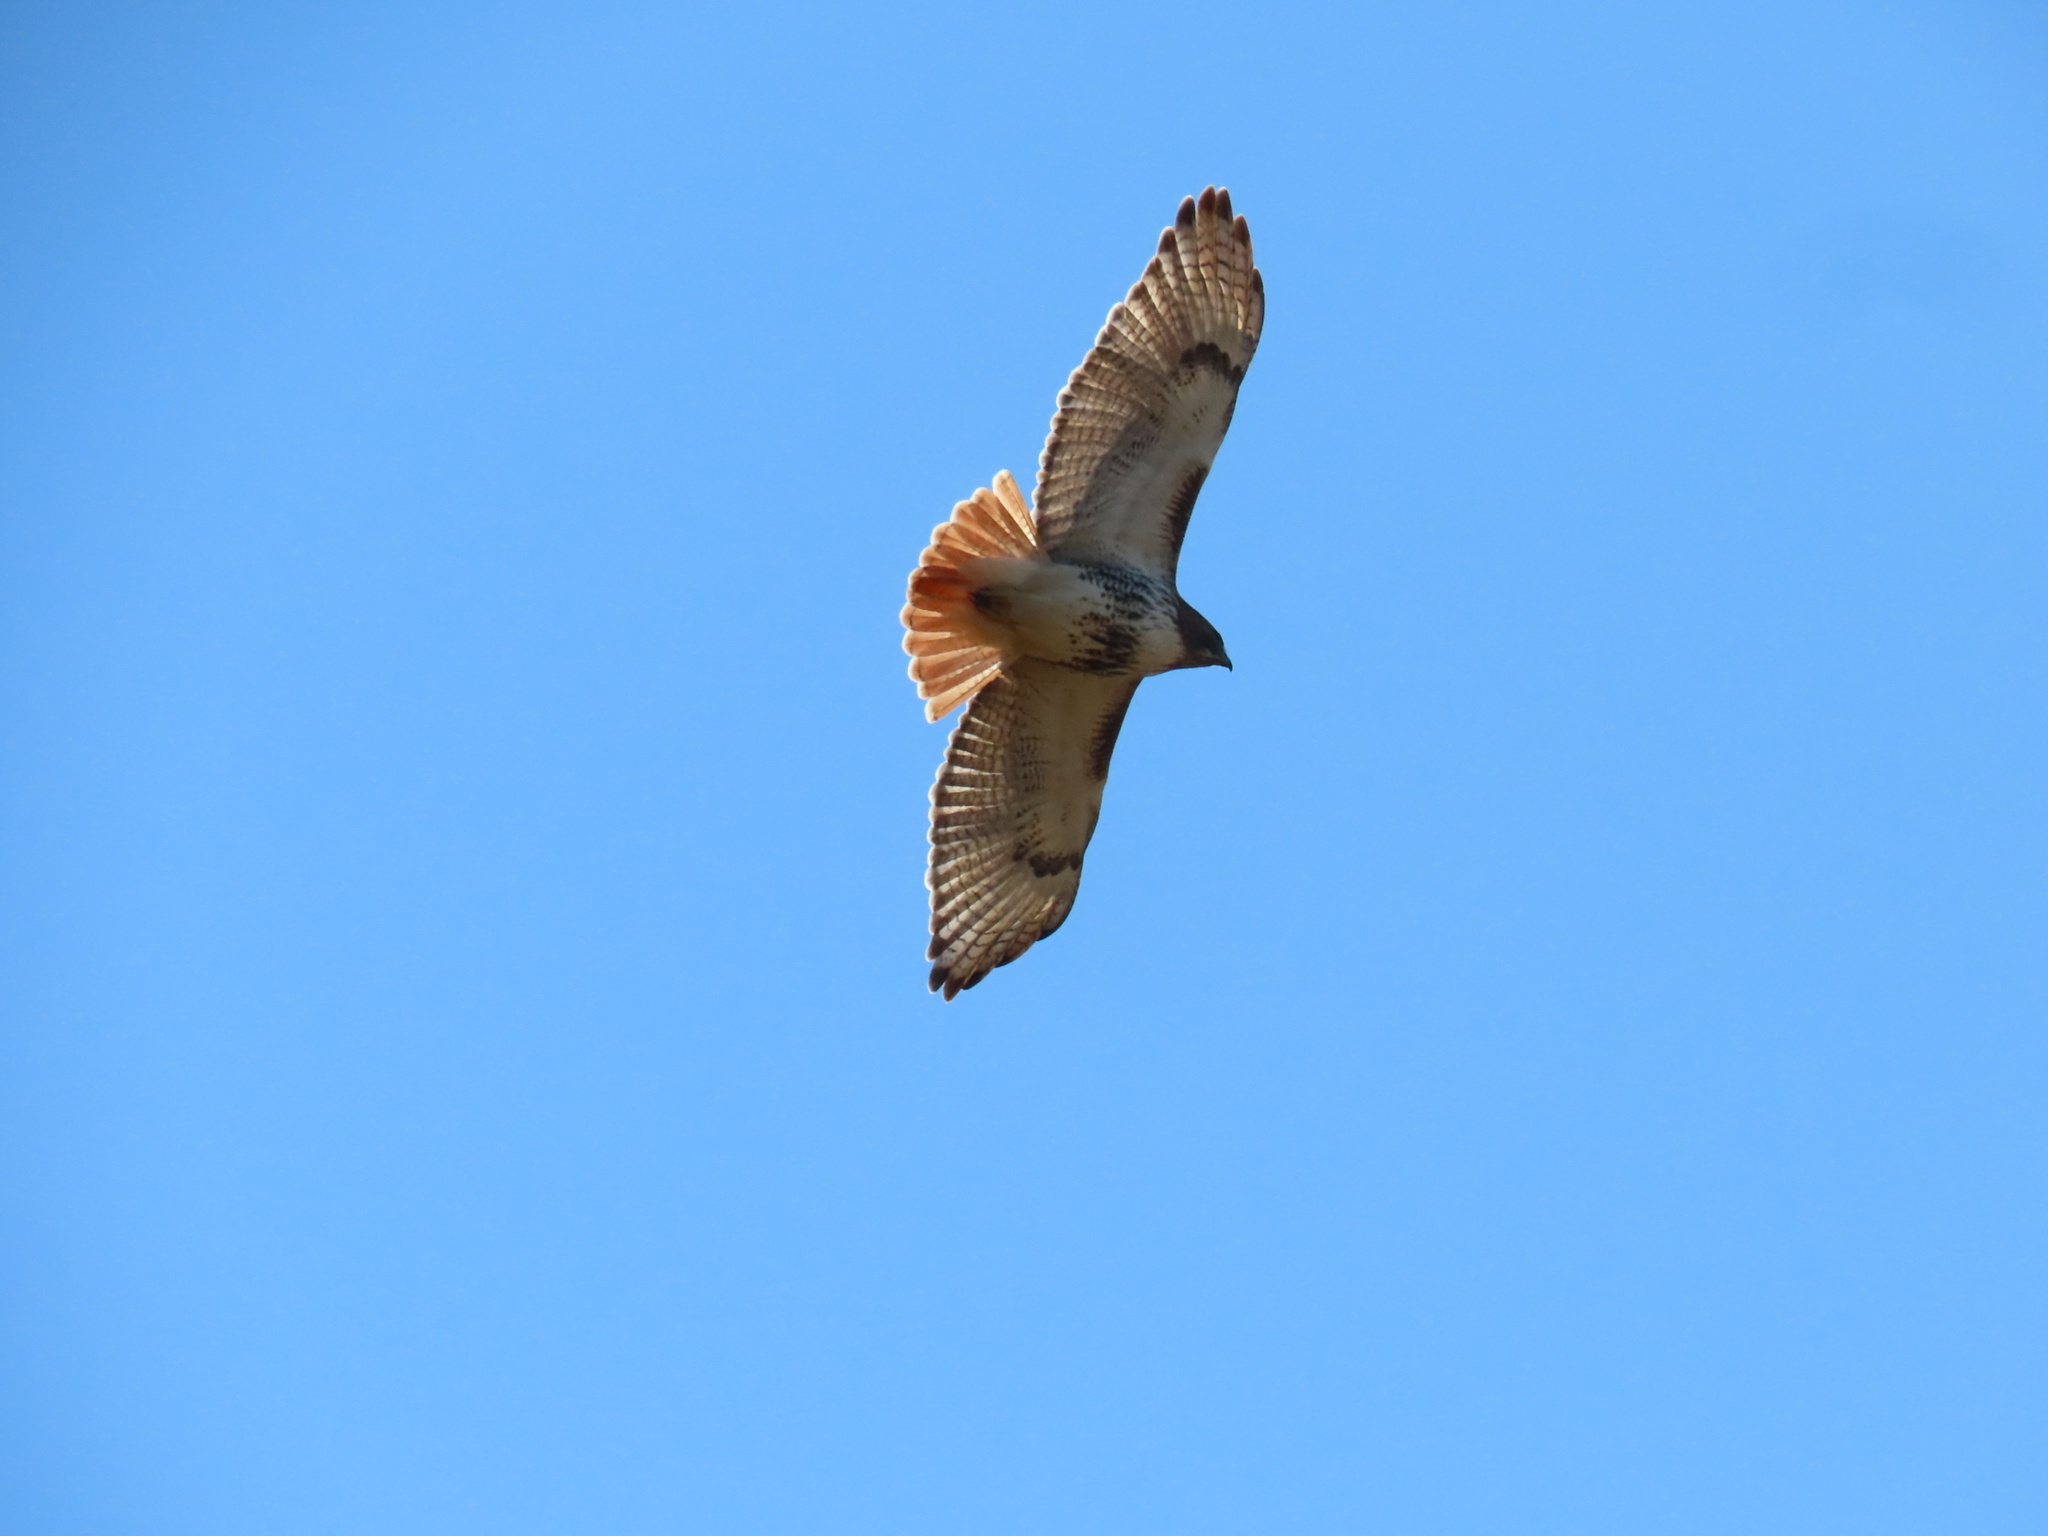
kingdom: Animalia
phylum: Chordata
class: Aves
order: Accipitriformes
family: Accipitridae
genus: Buteo
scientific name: Buteo jamaicensis
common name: Red-tailed hawk
